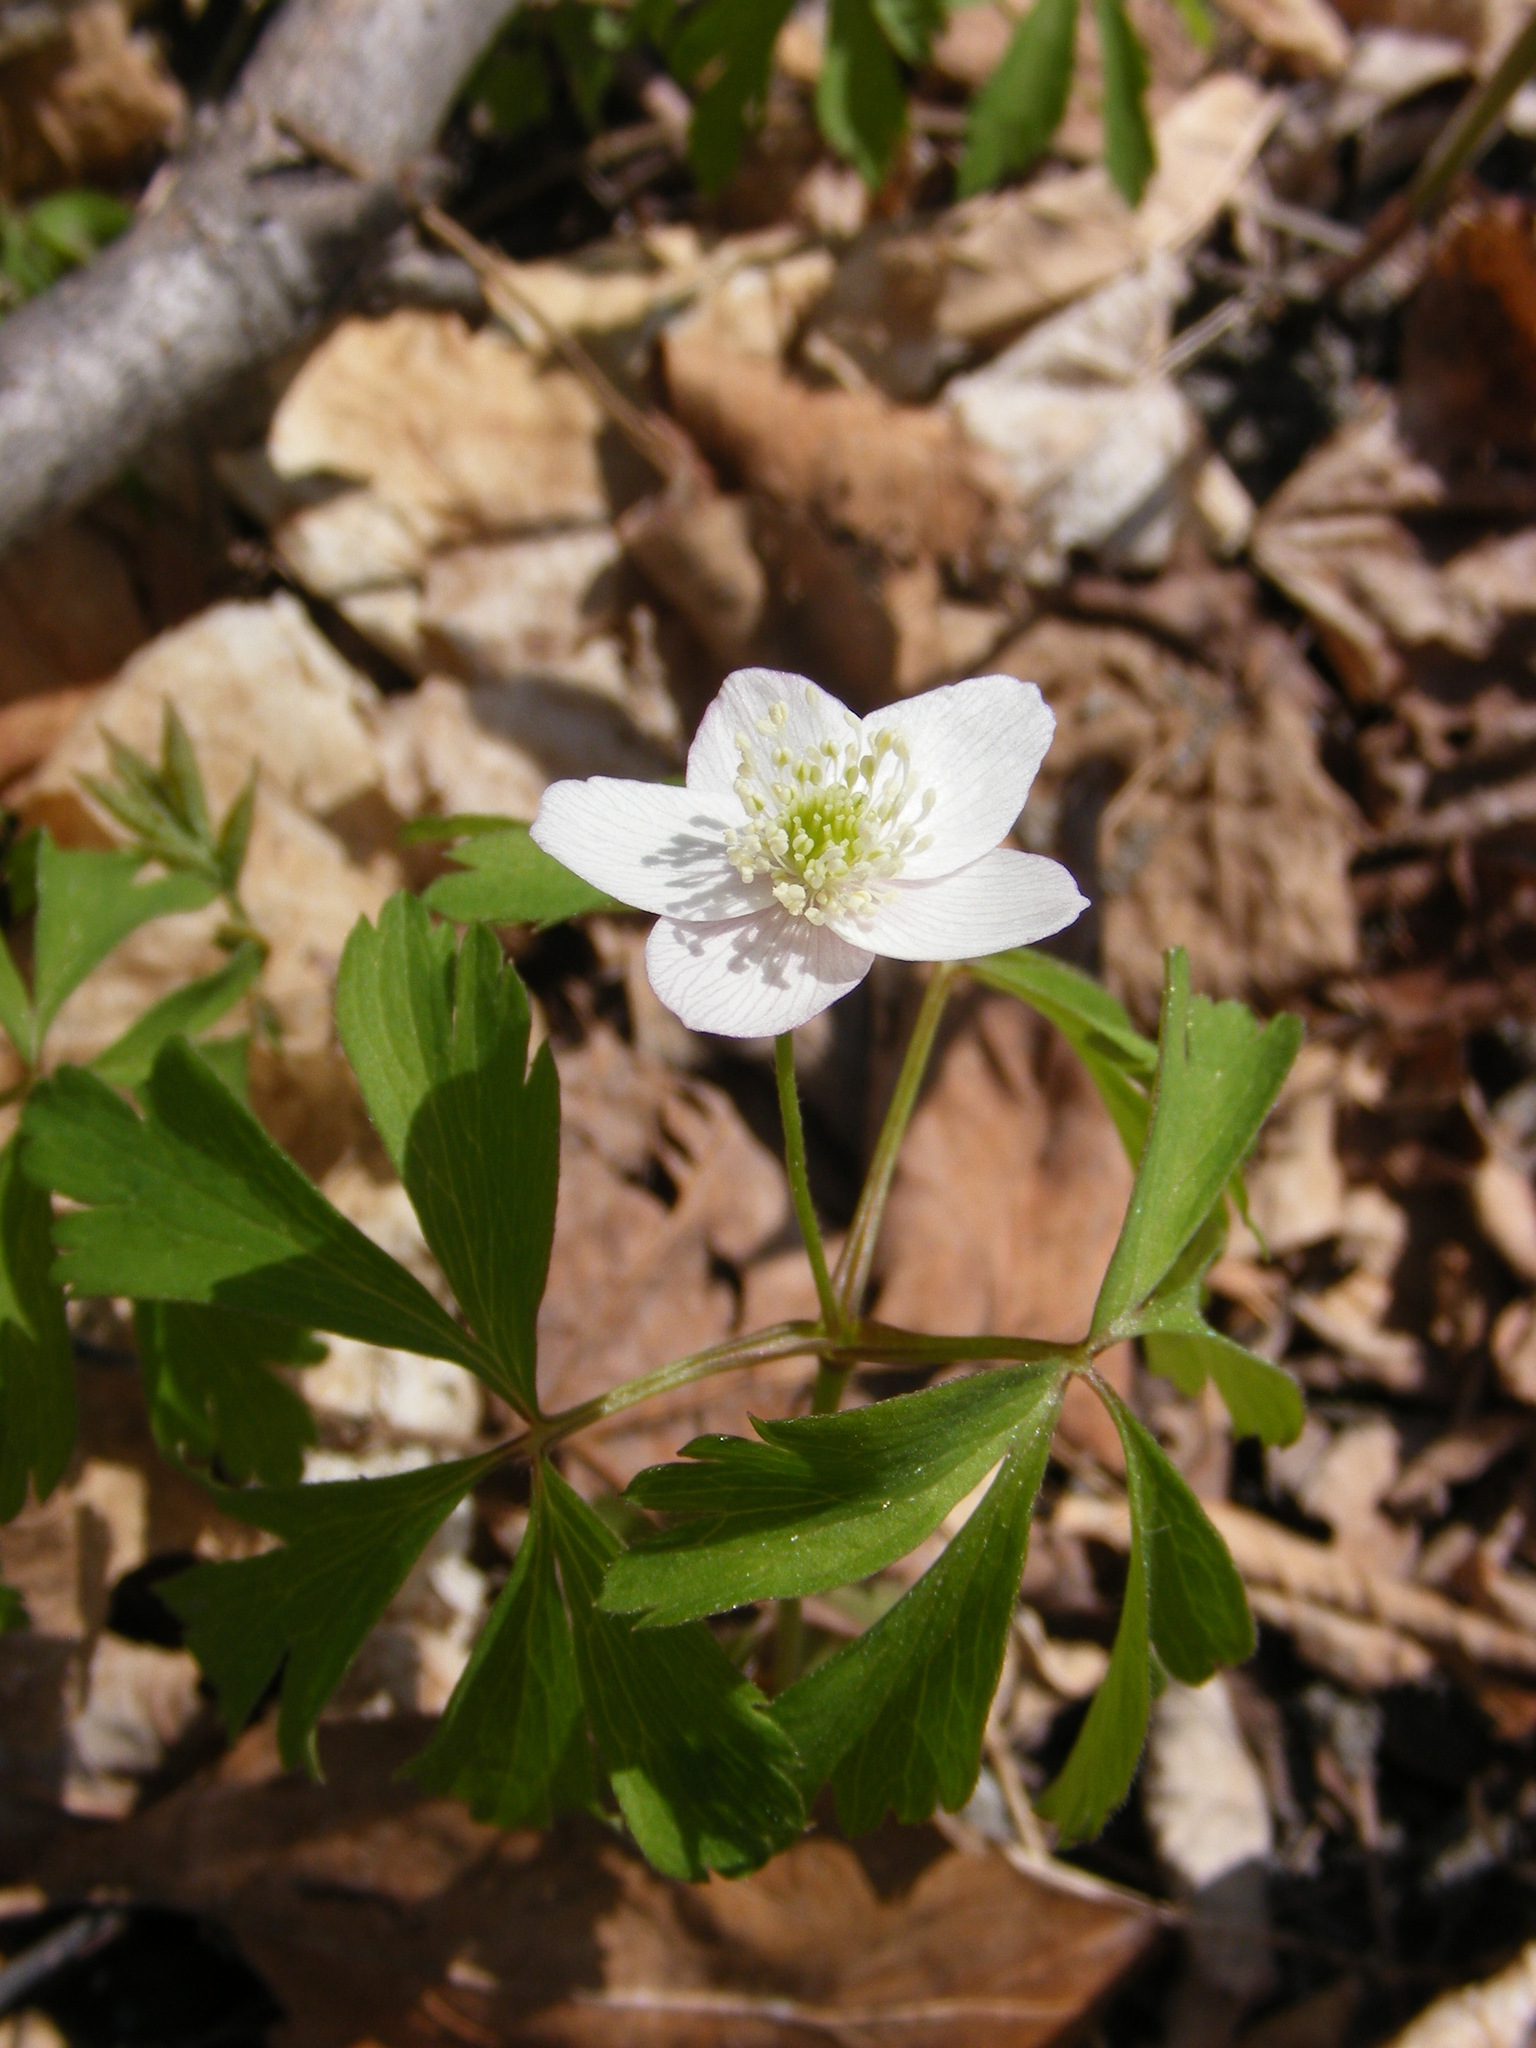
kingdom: Plantae
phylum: Tracheophyta
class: Magnoliopsida
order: Ranunculales
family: Ranunculaceae
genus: Anemone
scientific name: Anemone quinquefolia
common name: Wood anemone
